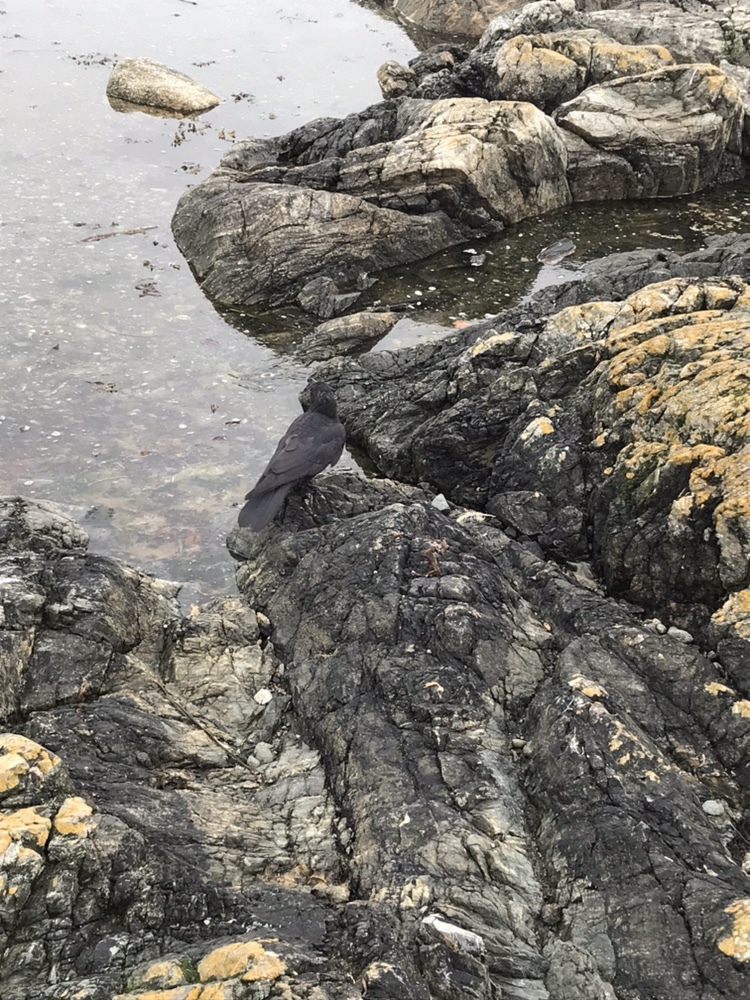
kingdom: Animalia
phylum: Chordata
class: Aves
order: Passeriformes
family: Corvidae
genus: Corvus
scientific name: Corvus brachyrhynchos
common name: American crow
